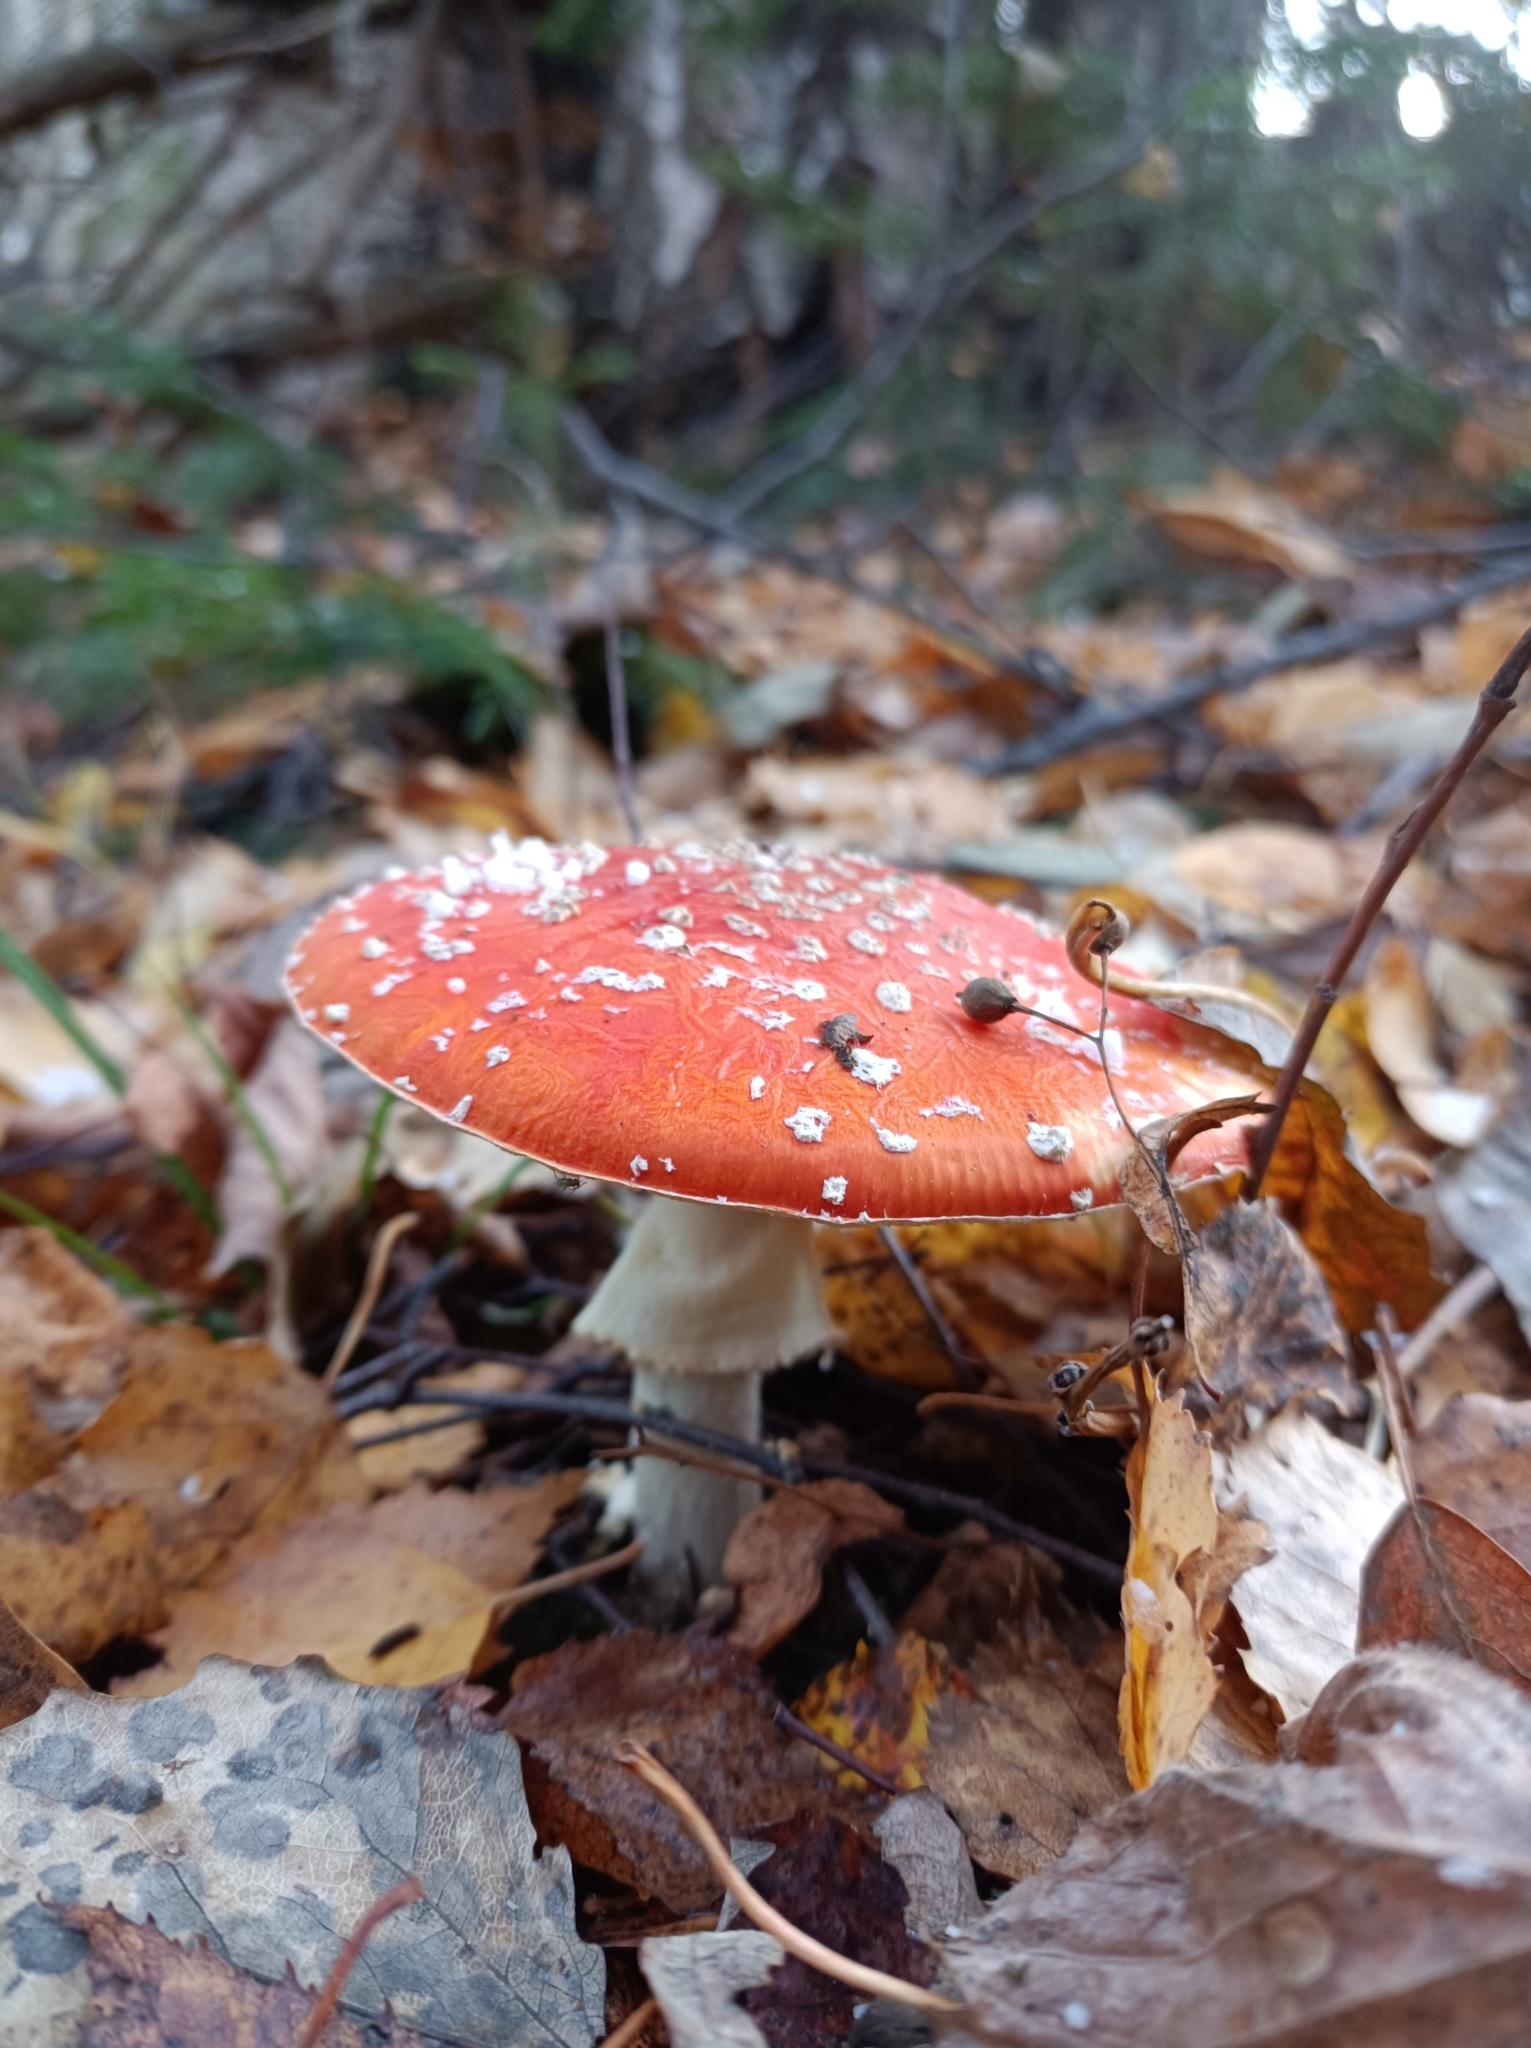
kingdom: Fungi
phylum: Basidiomycota
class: Agaricomycetes
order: Agaricales
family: Amanitaceae
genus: Amanita
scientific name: Amanita muscaria
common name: Fly agaric
